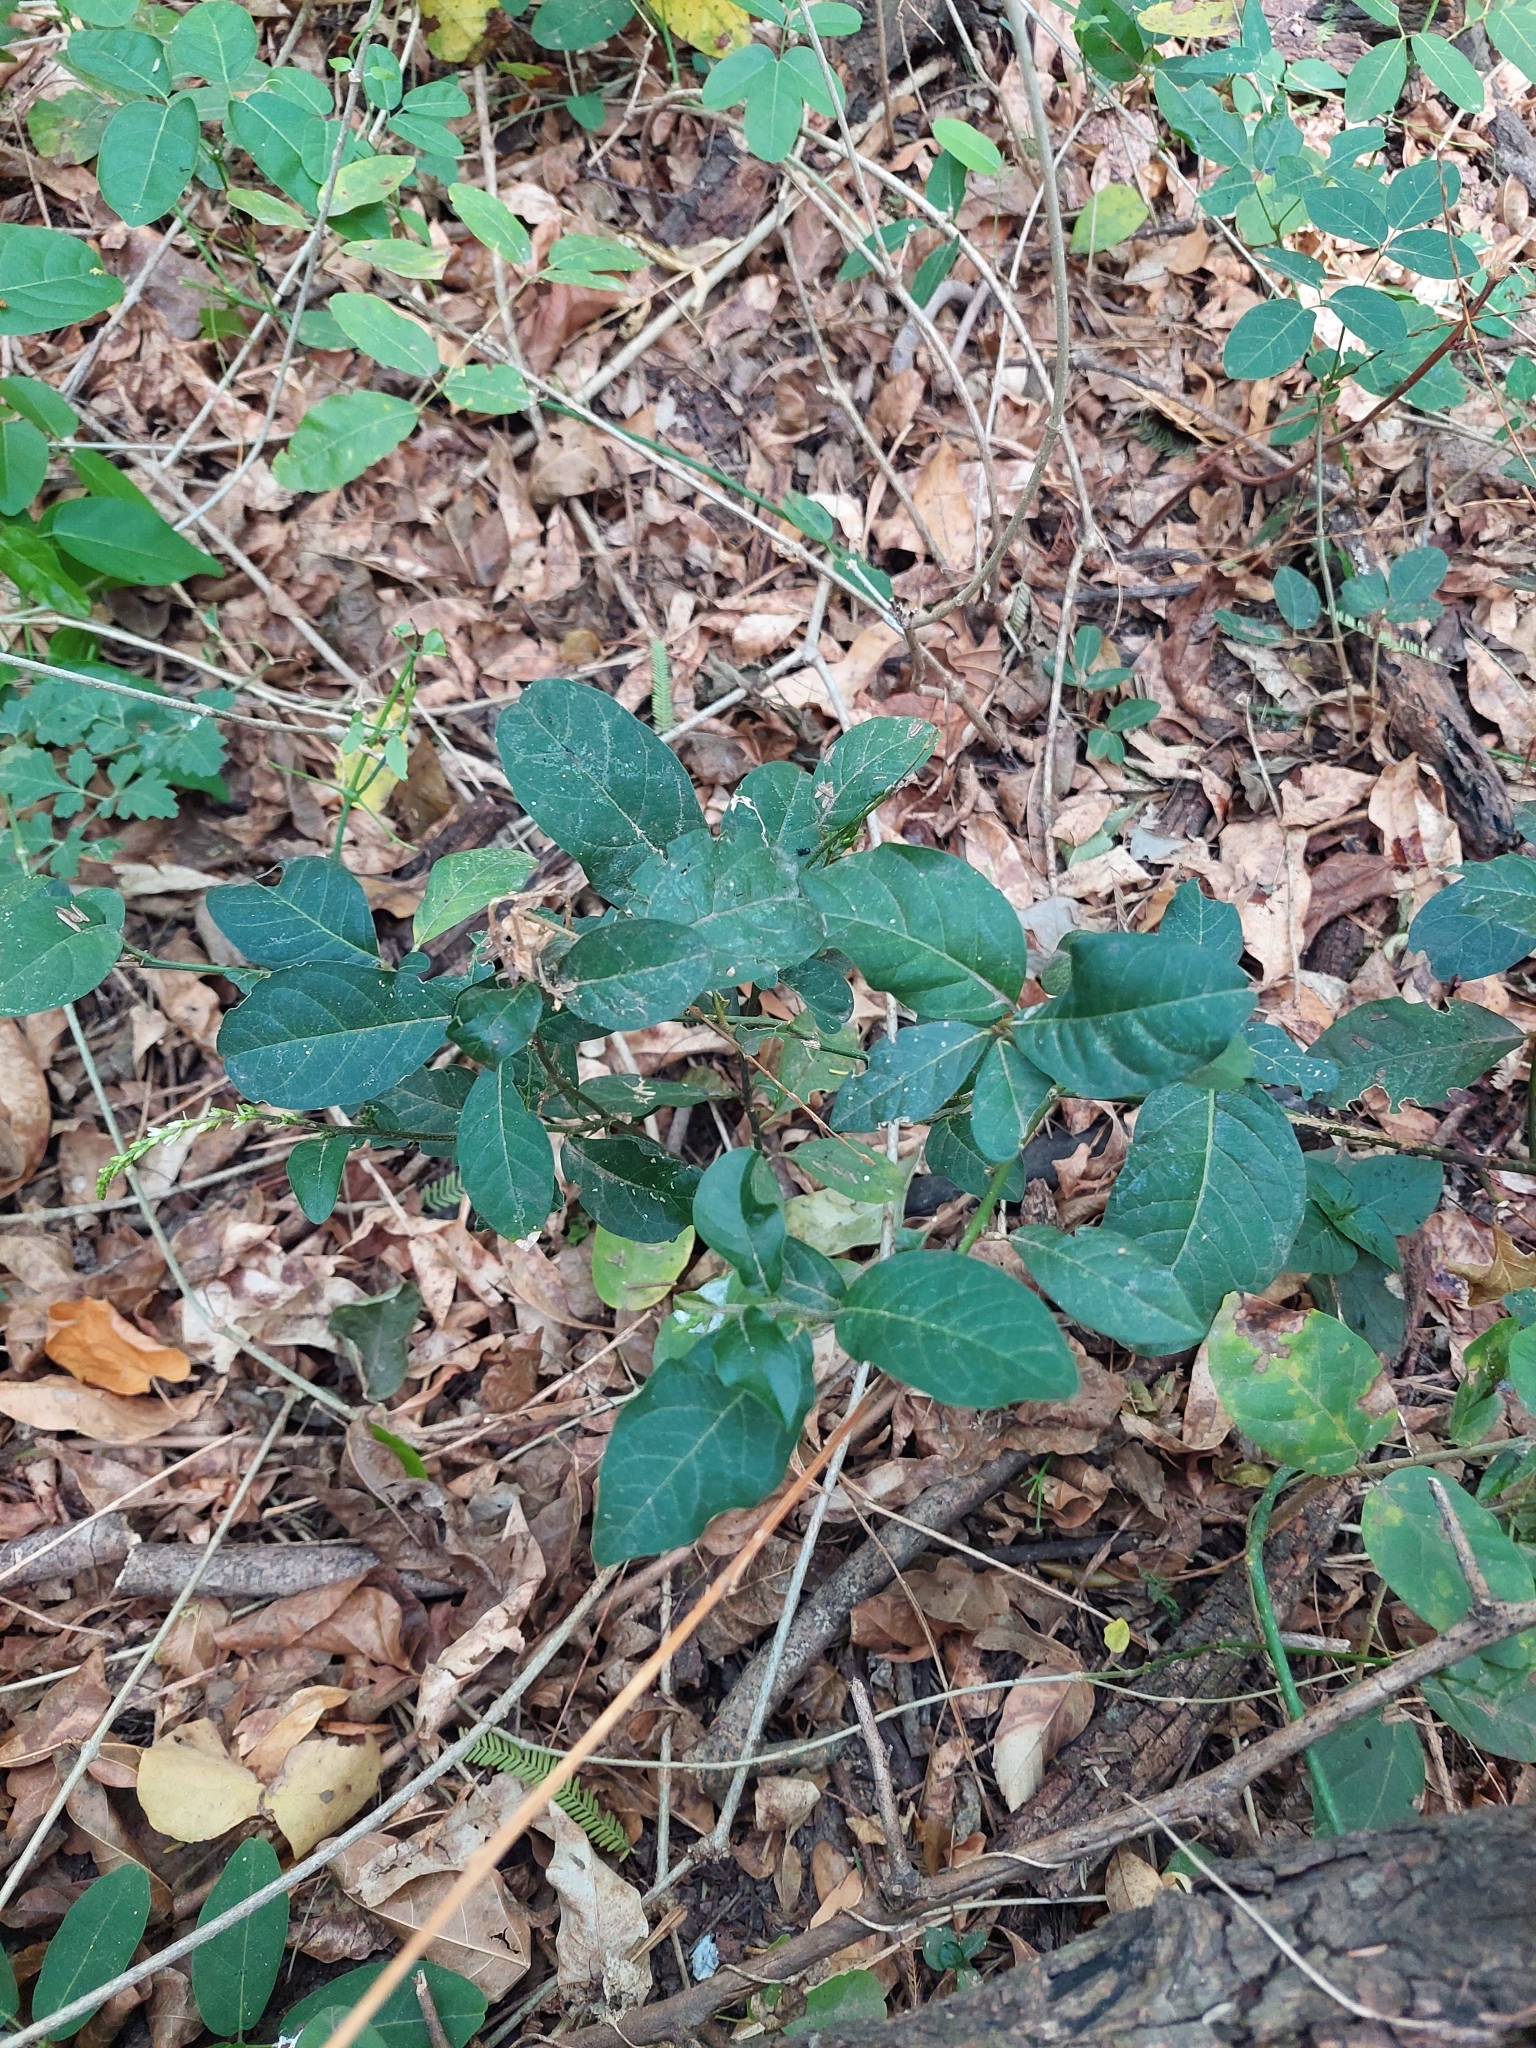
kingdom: Plantae
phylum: Tracheophyta
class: Magnoliopsida
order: Caryophyllales
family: Phytolaccaceae
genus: Petiveria
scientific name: Petiveria alliacea
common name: Garlicweed
